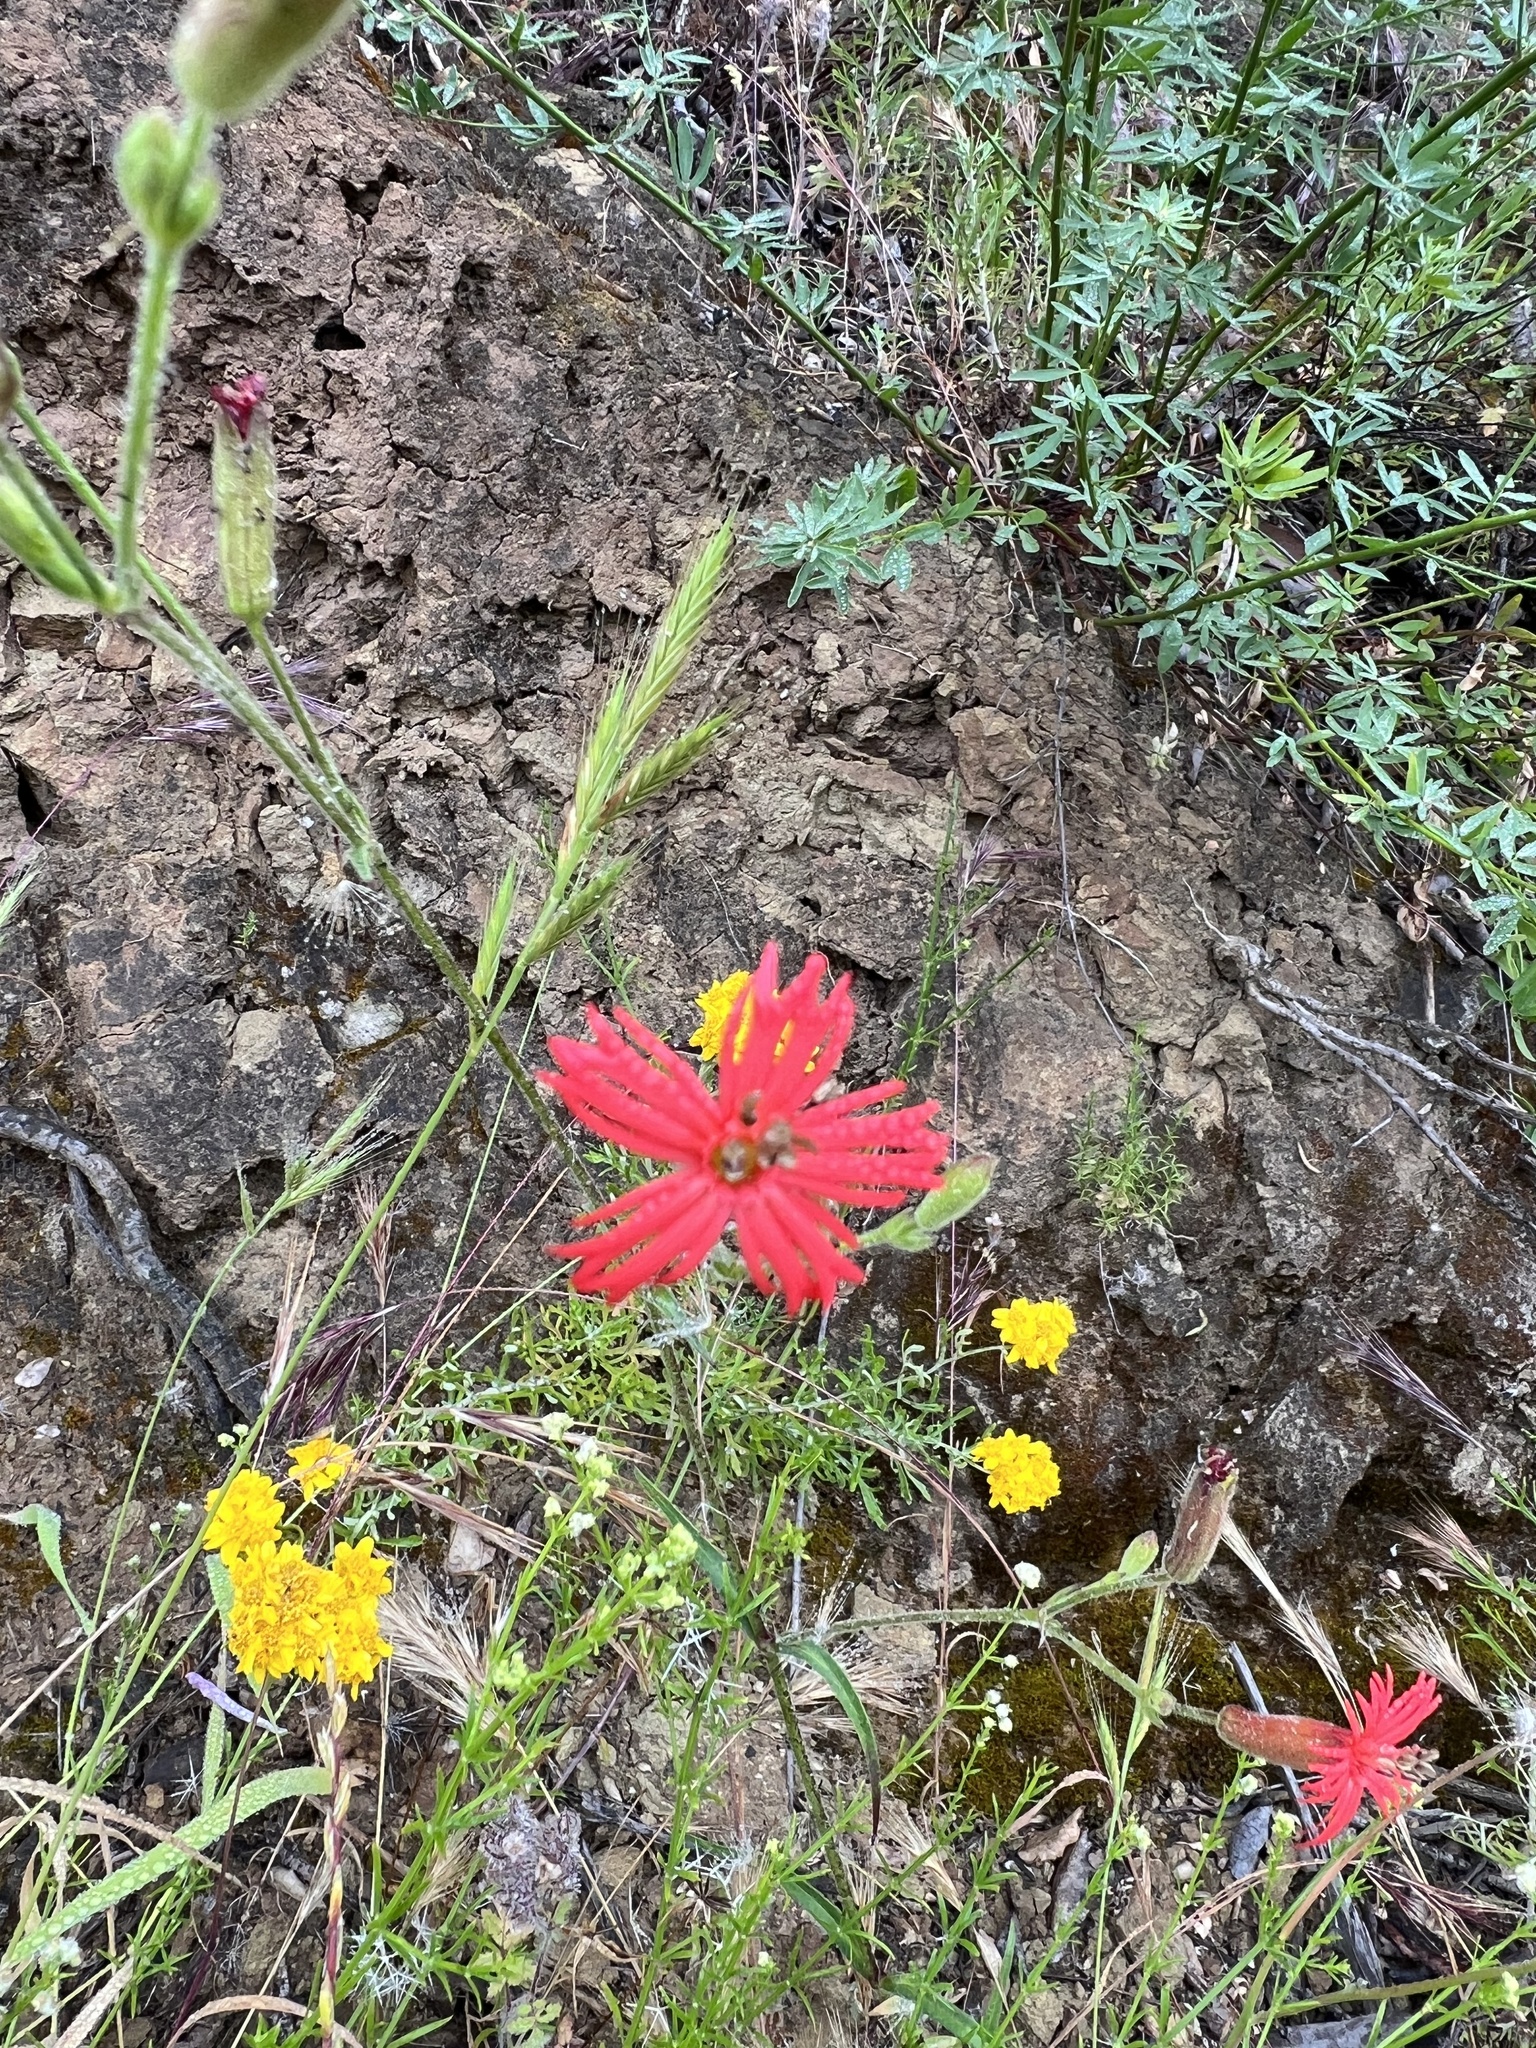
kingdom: Plantae
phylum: Tracheophyta
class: Magnoliopsida
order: Caryophyllales
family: Caryophyllaceae
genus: Silene
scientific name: Silene laciniata
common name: Indian-pink
